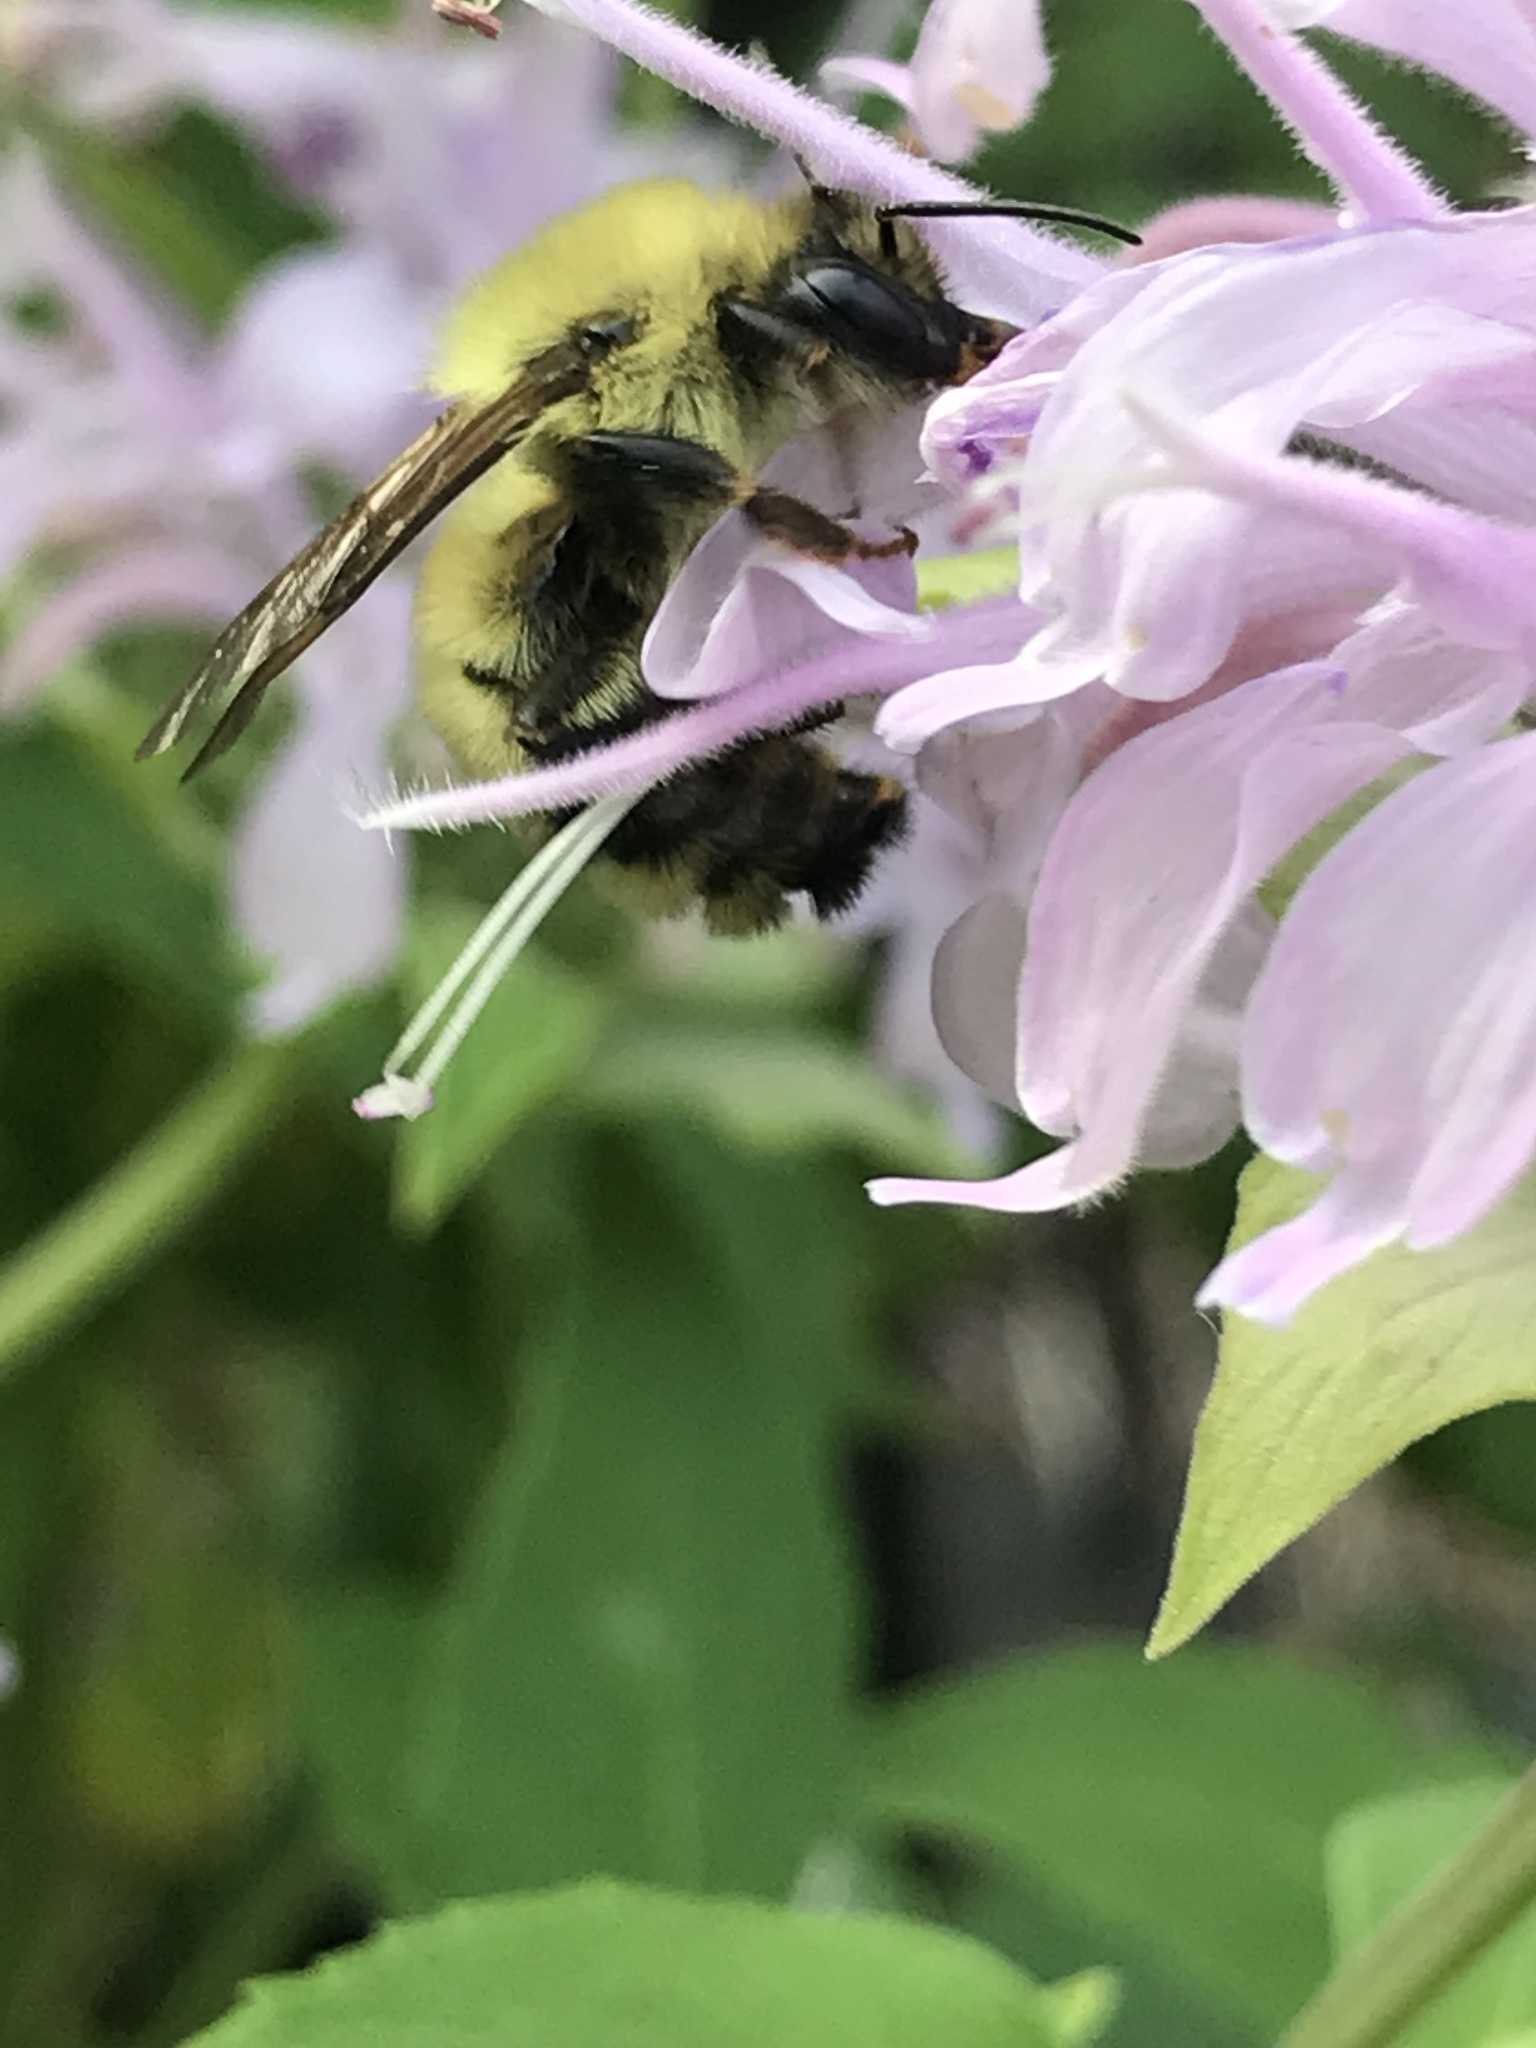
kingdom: Animalia
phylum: Arthropoda
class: Insecta
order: Hymenoptera
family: Apidae
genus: Bombus
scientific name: Bombus bimaculatus
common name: Two-spotted bumble bee
